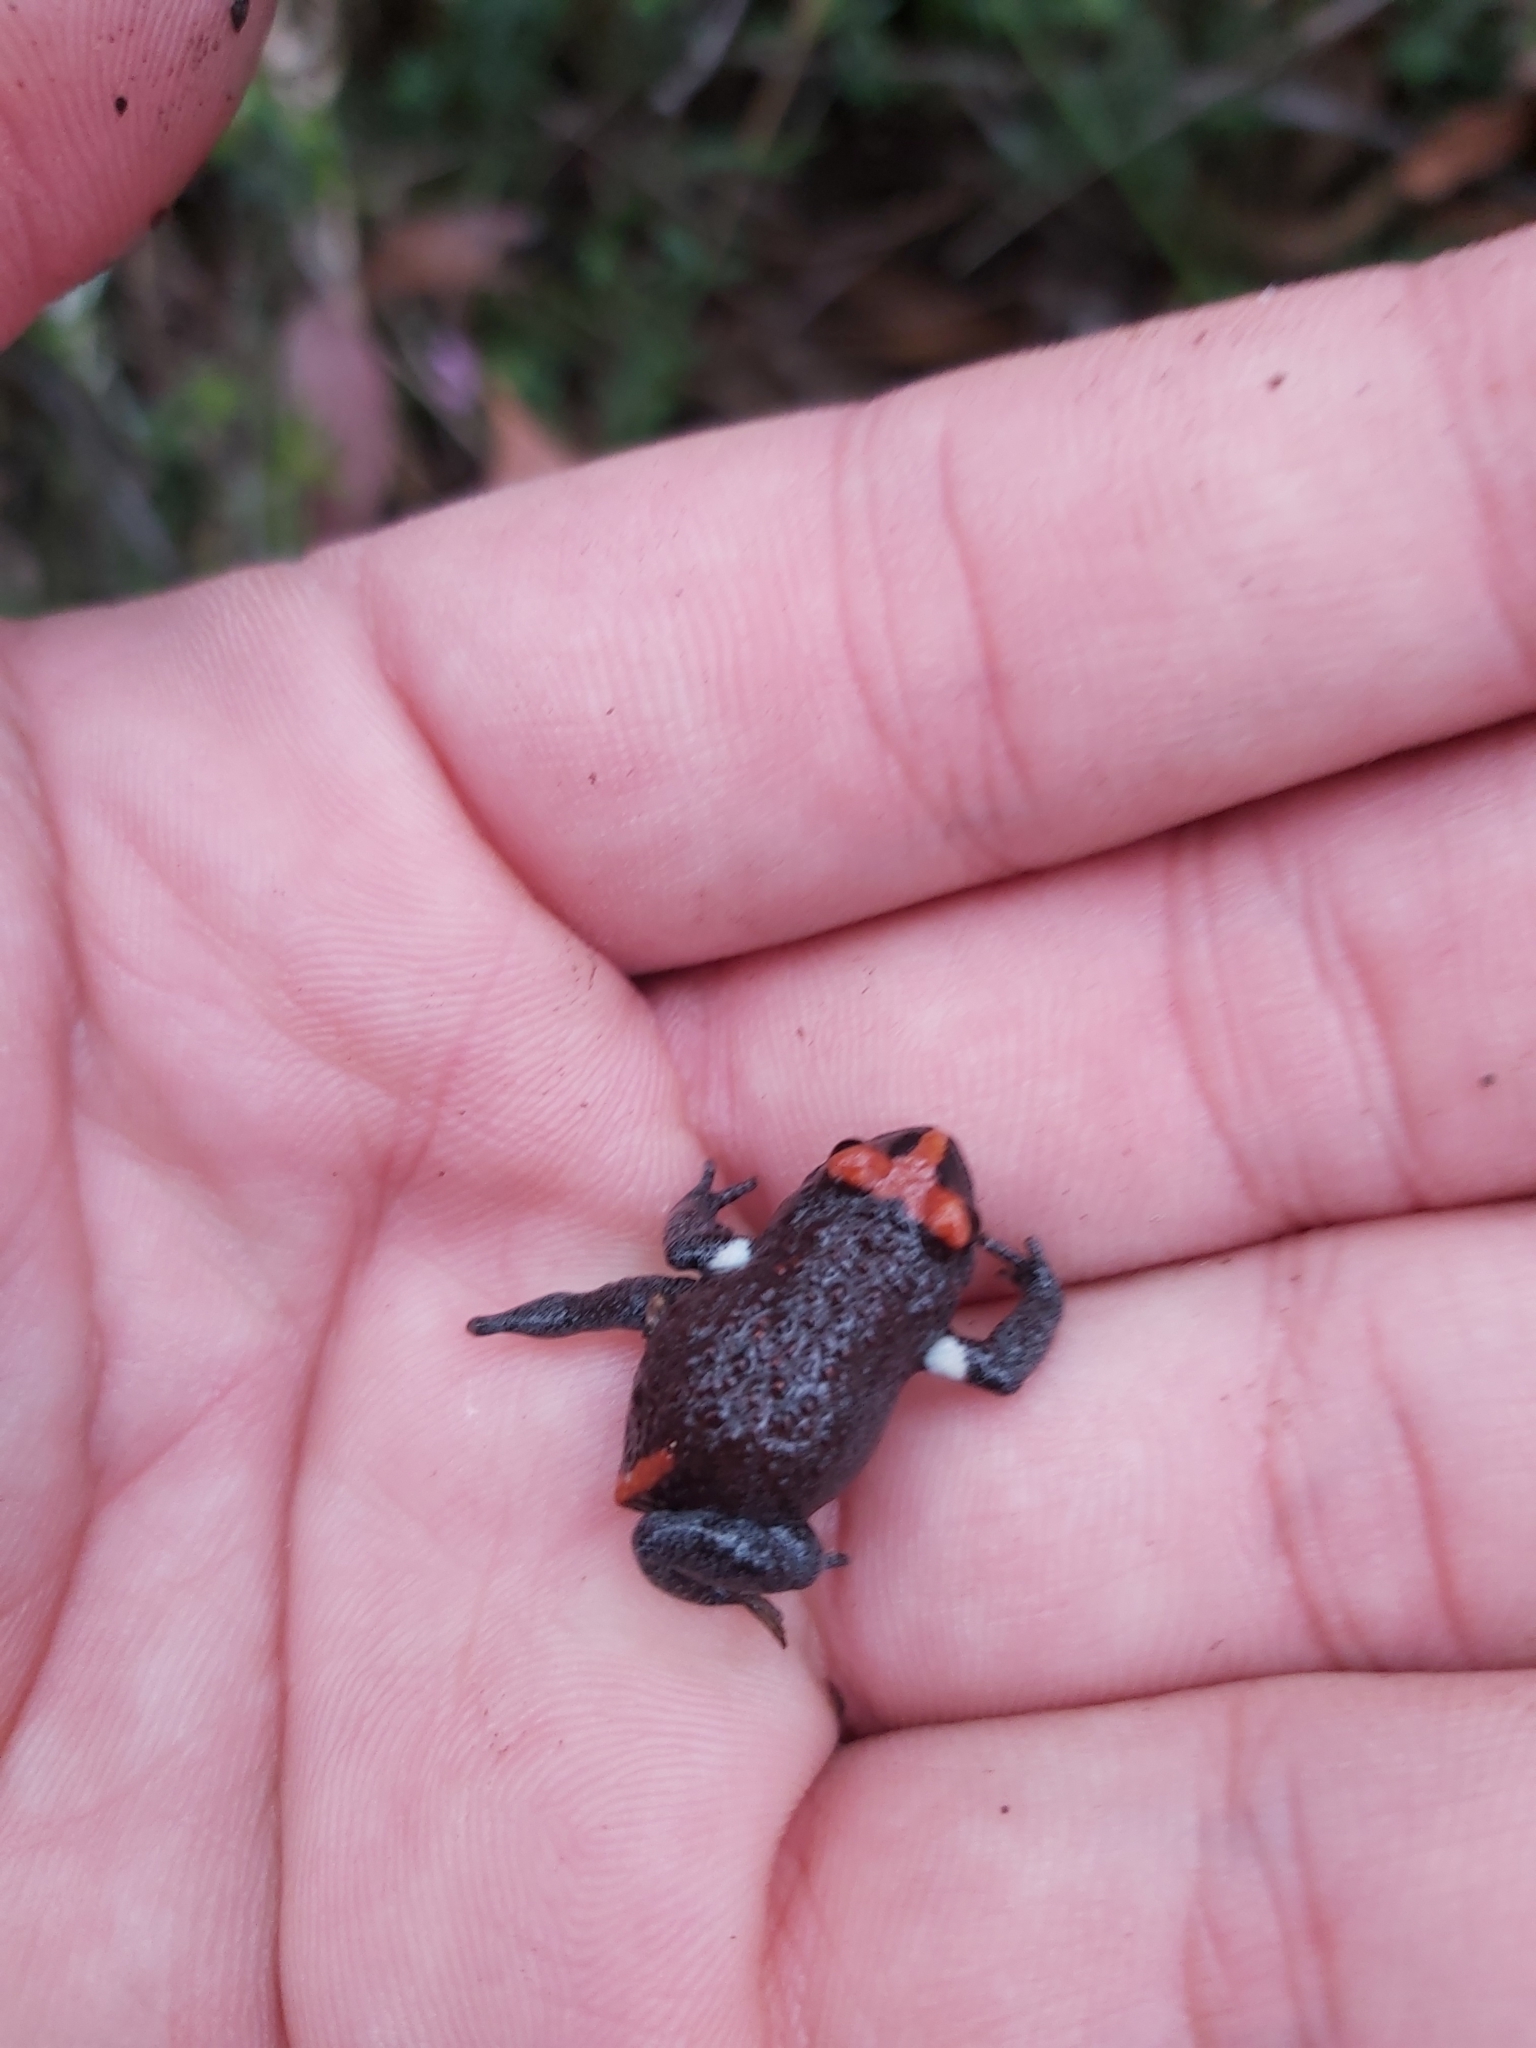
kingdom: Animalia
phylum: Chordata
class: Amphibia
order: Anura
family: Myobatrachidae
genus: Pseudophryne
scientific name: Pseudophryne australis
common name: Red-crowned toadlet
